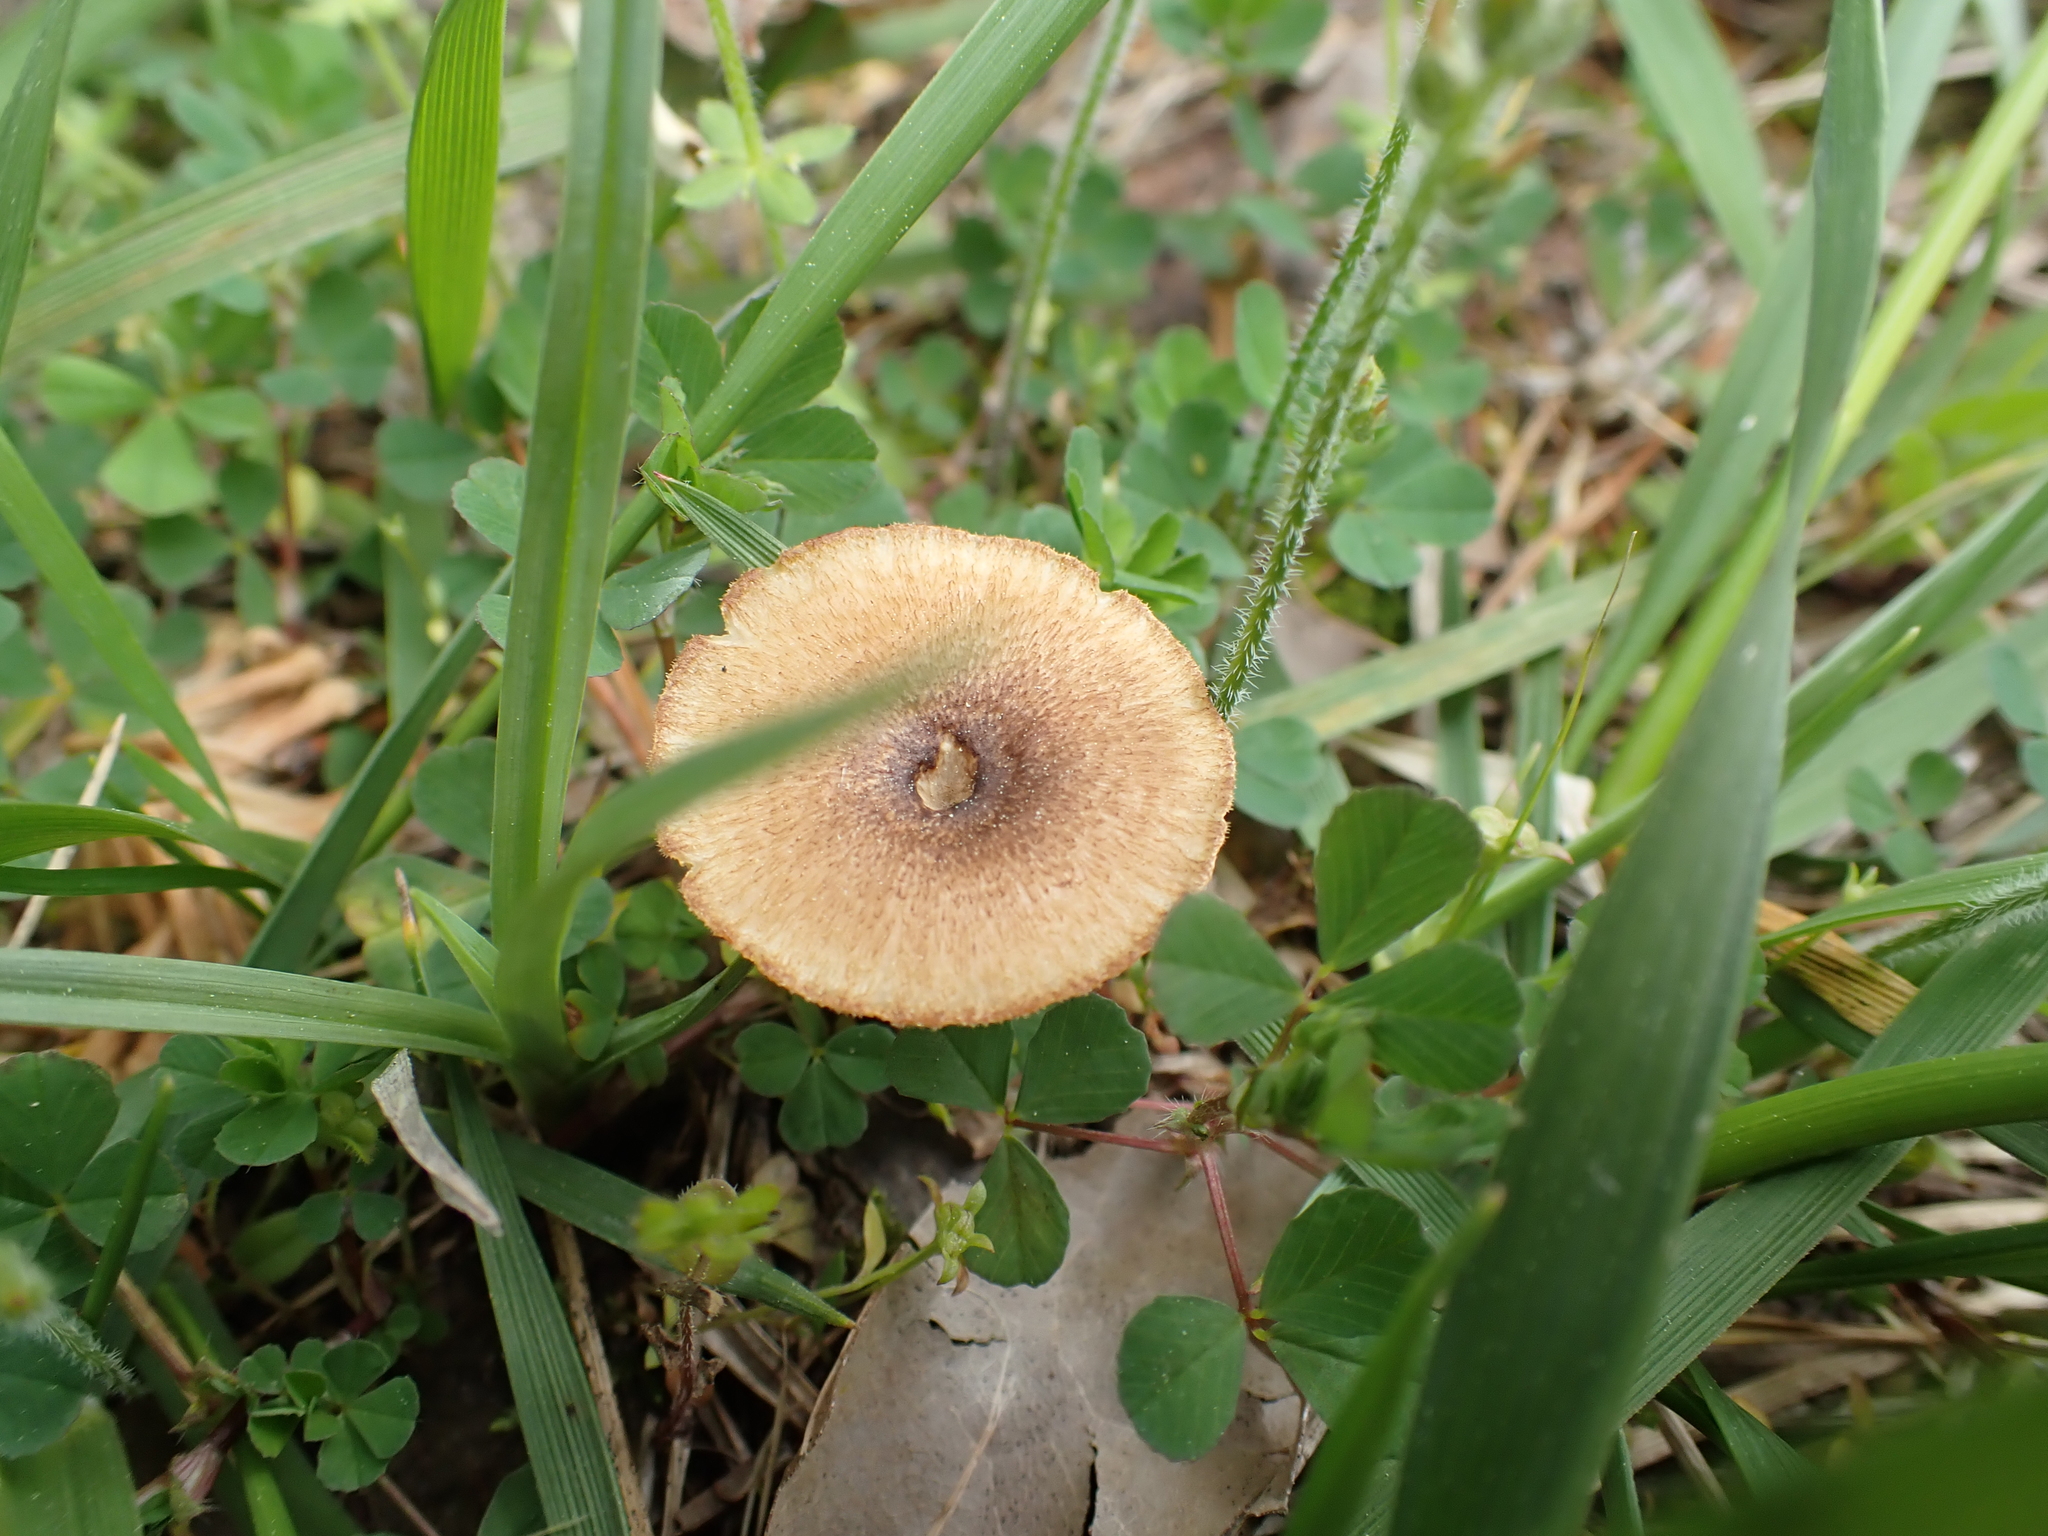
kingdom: Fungi
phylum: Basidiomycota
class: Agaricomycetes
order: Polyporales
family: Polyporaceae
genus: Lentinus
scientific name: Lentinus arcularius
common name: Spring polypore
